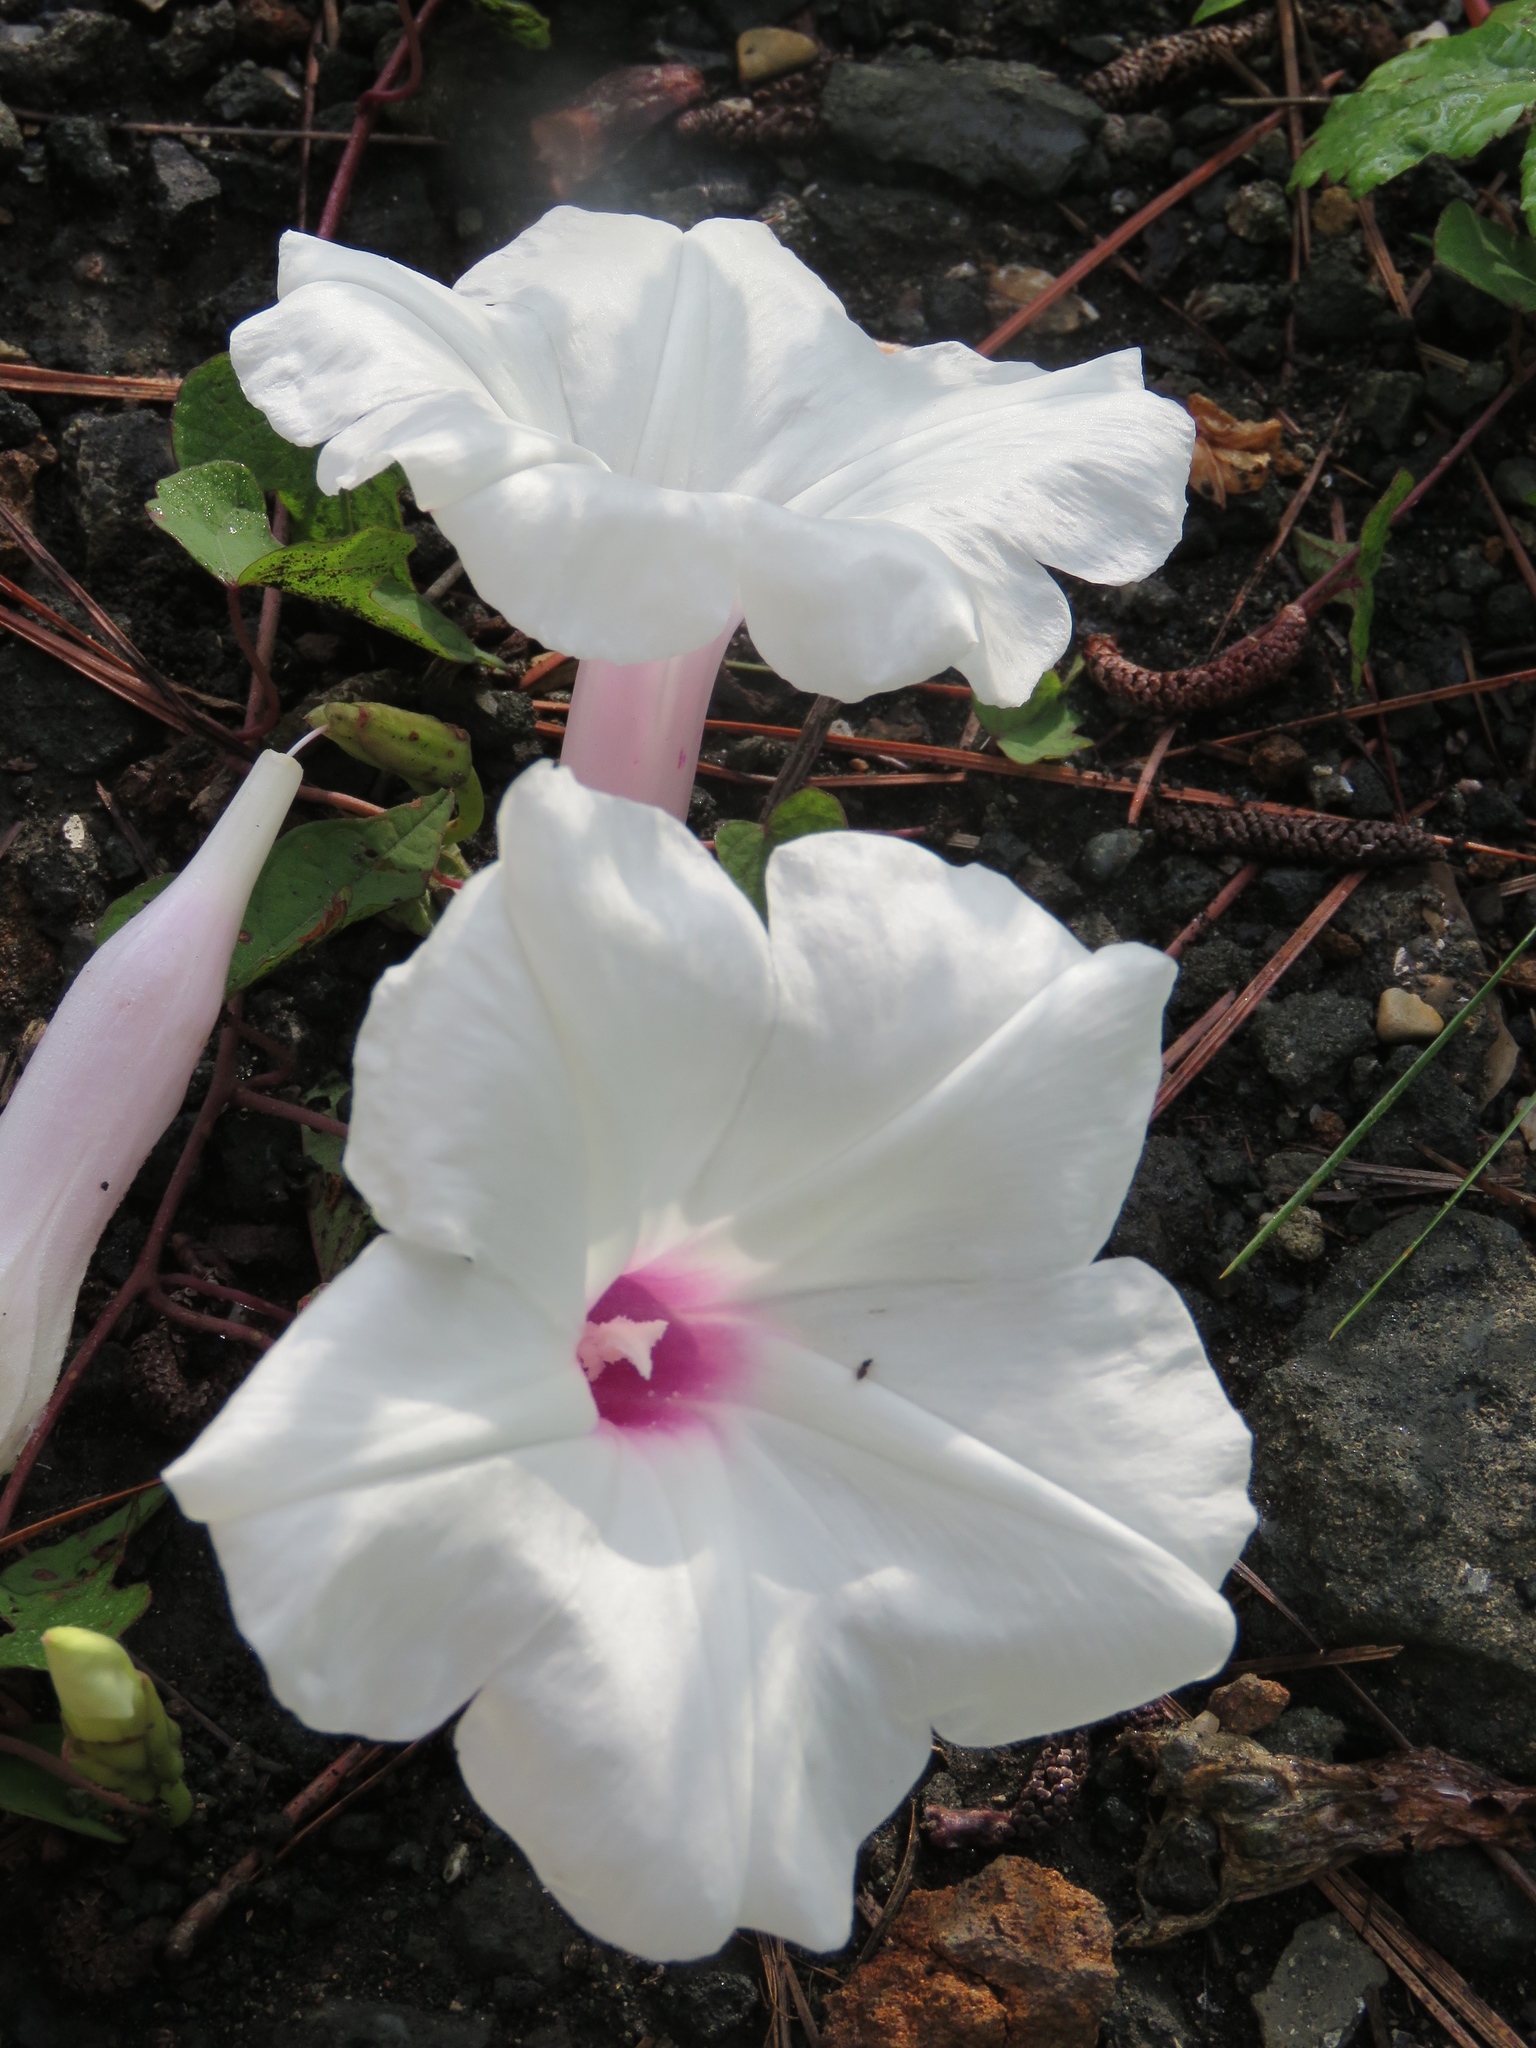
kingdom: Plantae
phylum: Tracheophyta
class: Magnoliopsida
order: Solanales
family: Convolvulaceae
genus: Ipomoea
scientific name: Ipomoea pandurata
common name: Man-of-the-earth
